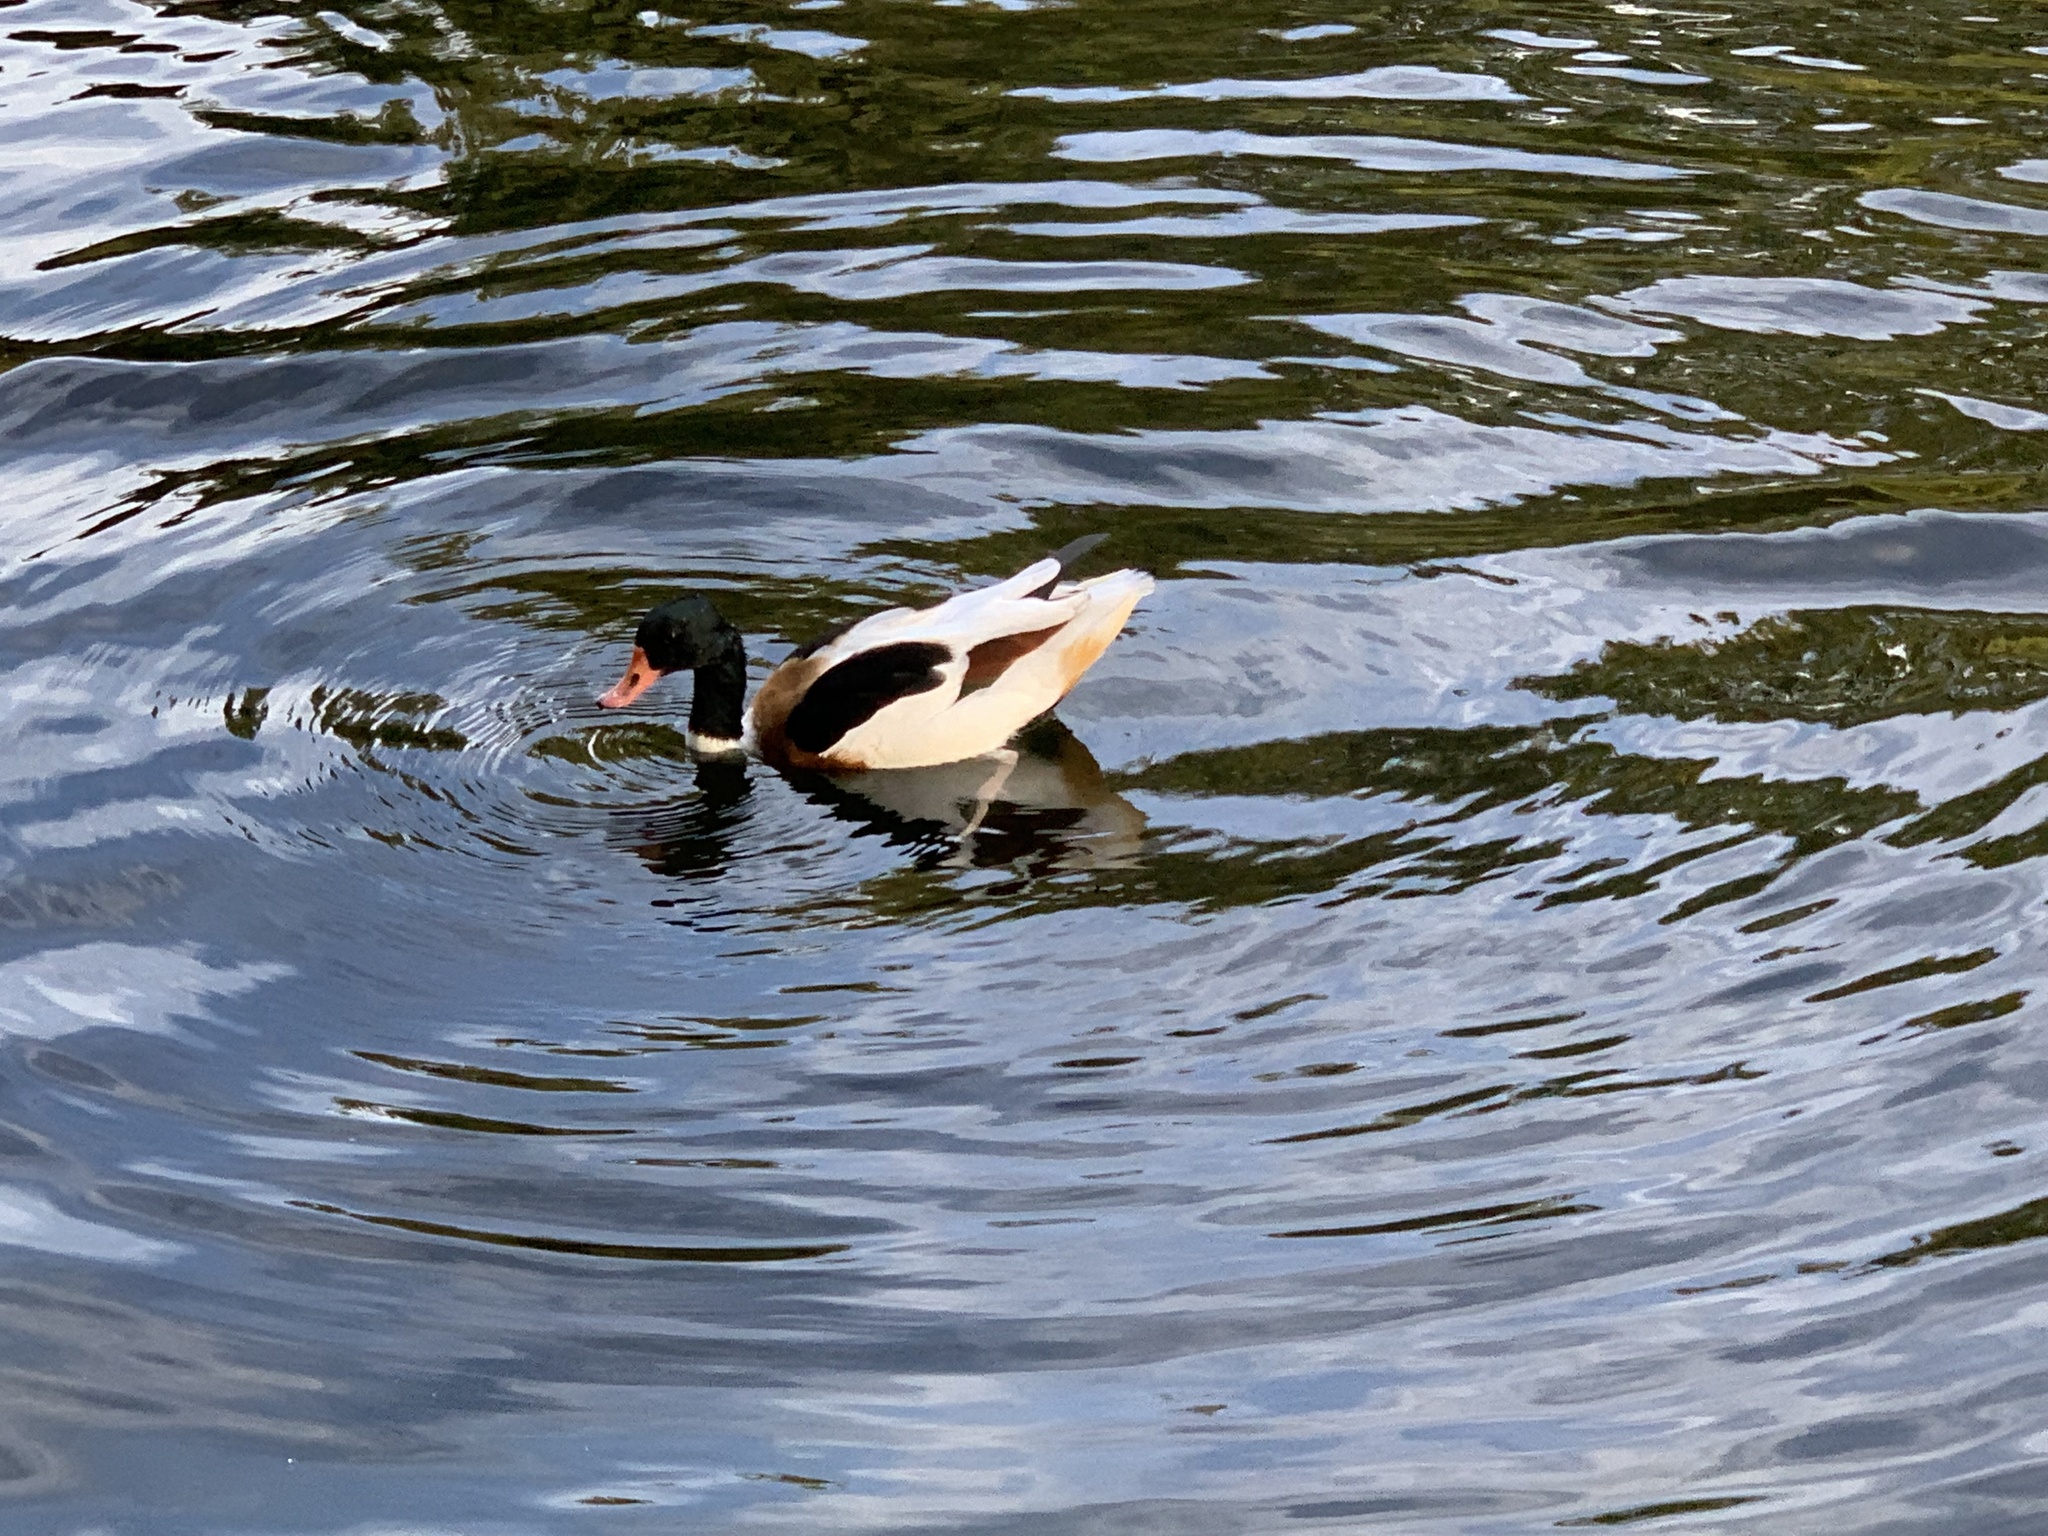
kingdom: Animalia
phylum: Chordata
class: Aves
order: Anseriformes
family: Anatidae
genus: Tadorna
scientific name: Tadorna tadorna
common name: Common shelduck
